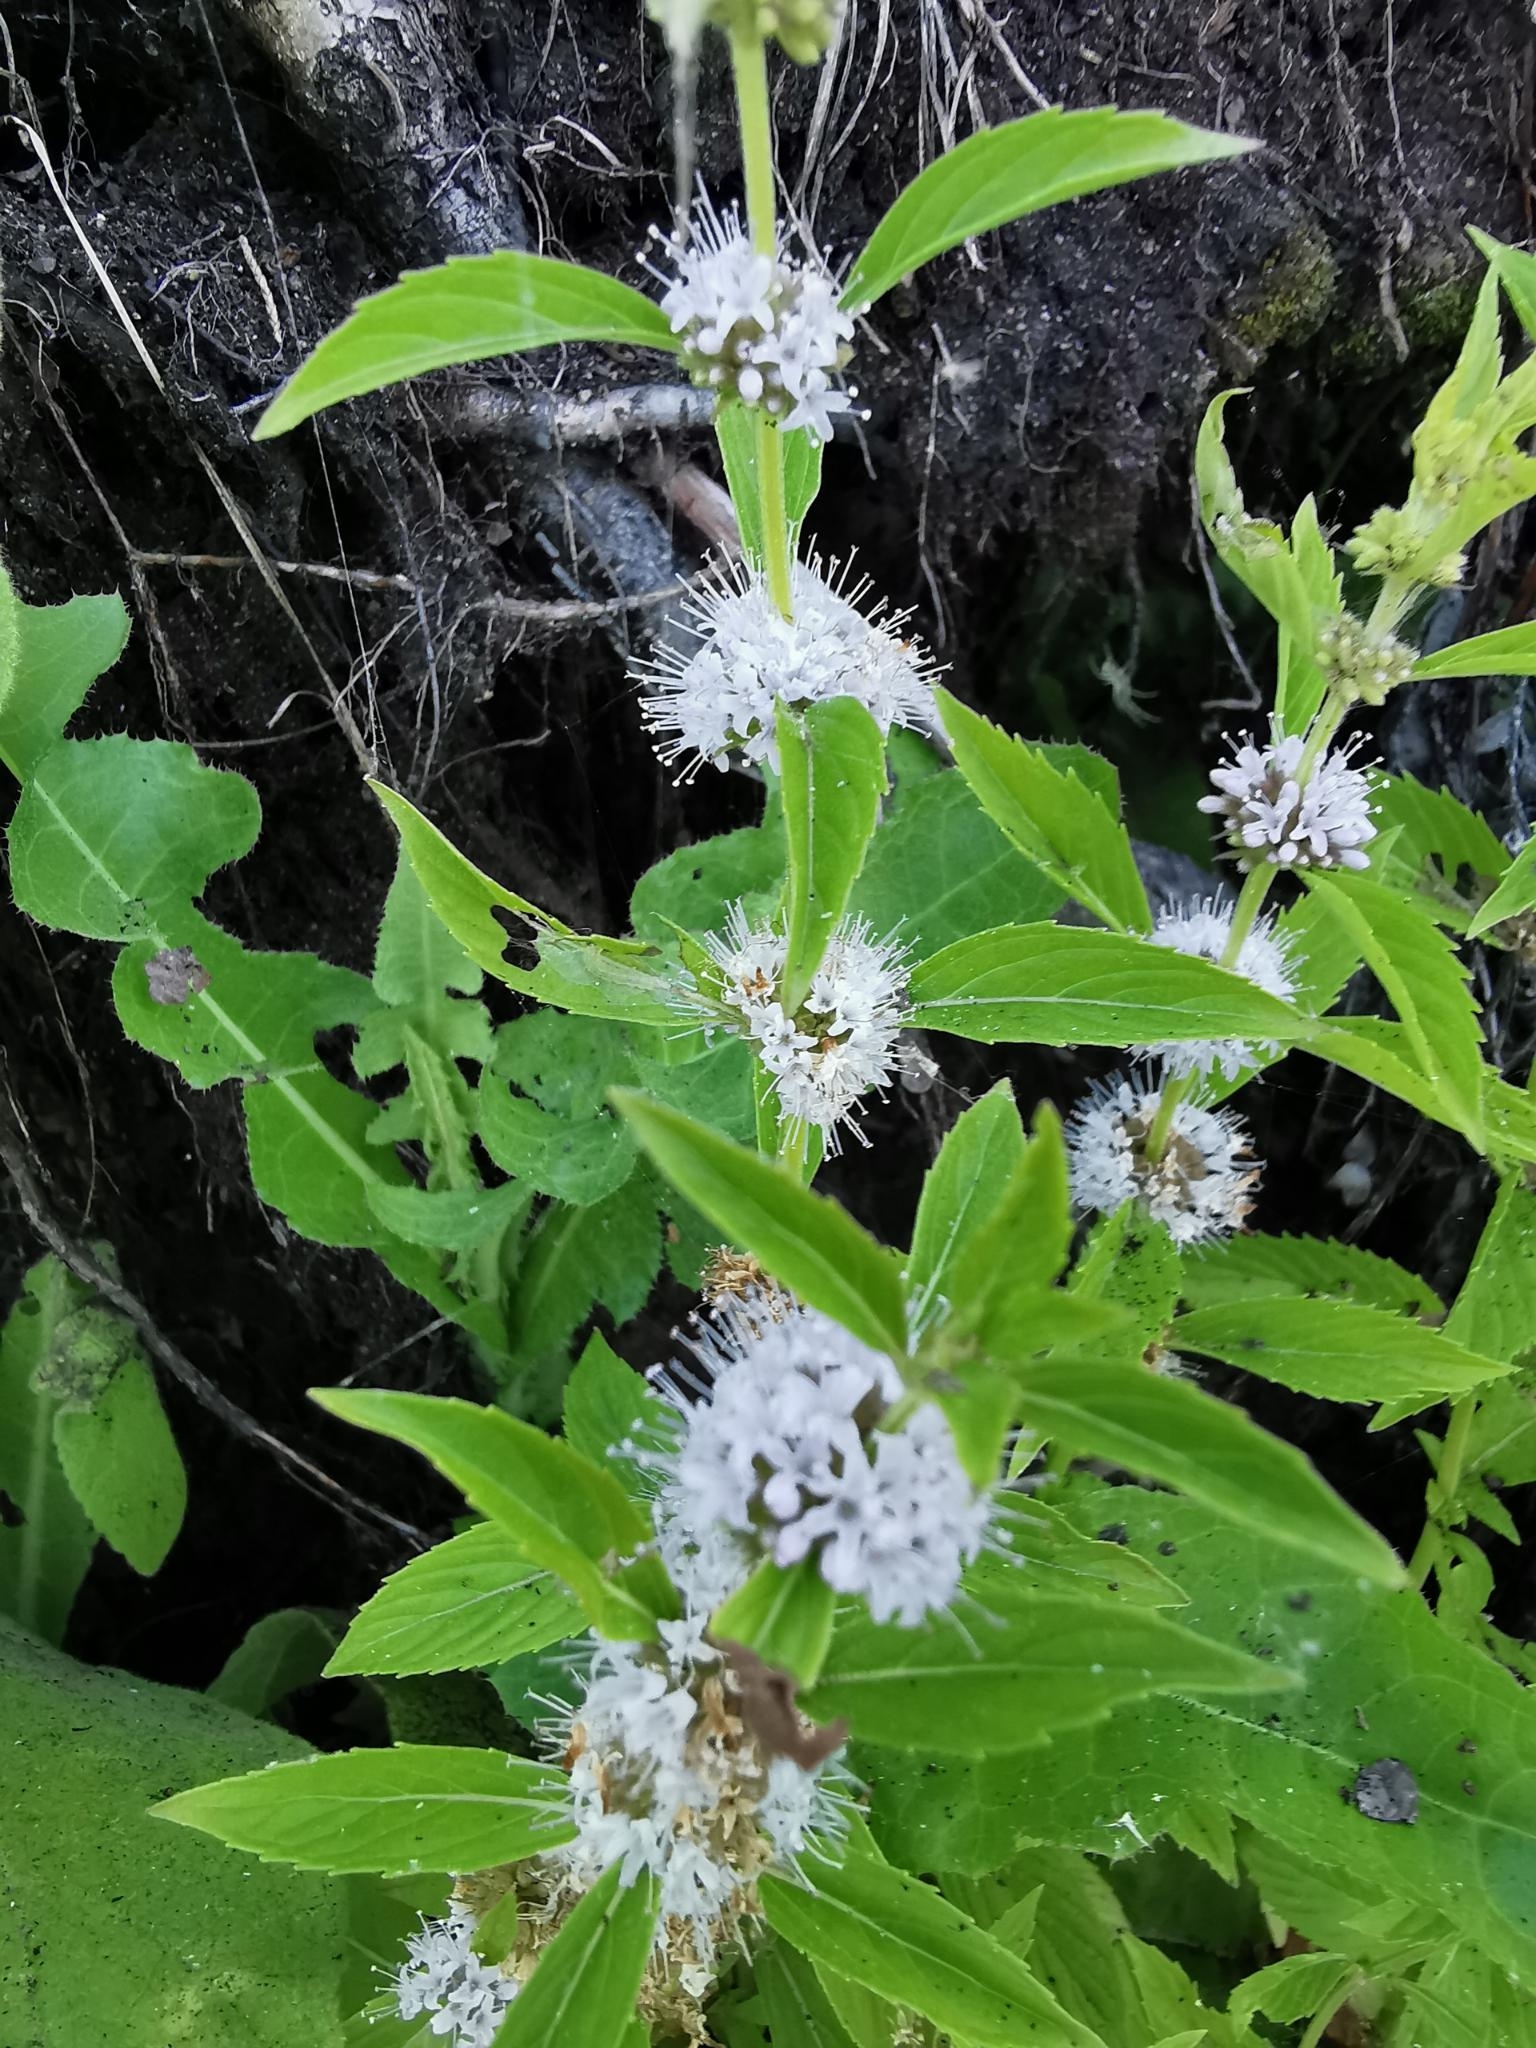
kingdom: Plantae
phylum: Tracheophyta
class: Magnoliopsida
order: Lamiales
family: Lamiaceae
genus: Mentha
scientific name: Mentha canadensis
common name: American corn mint
